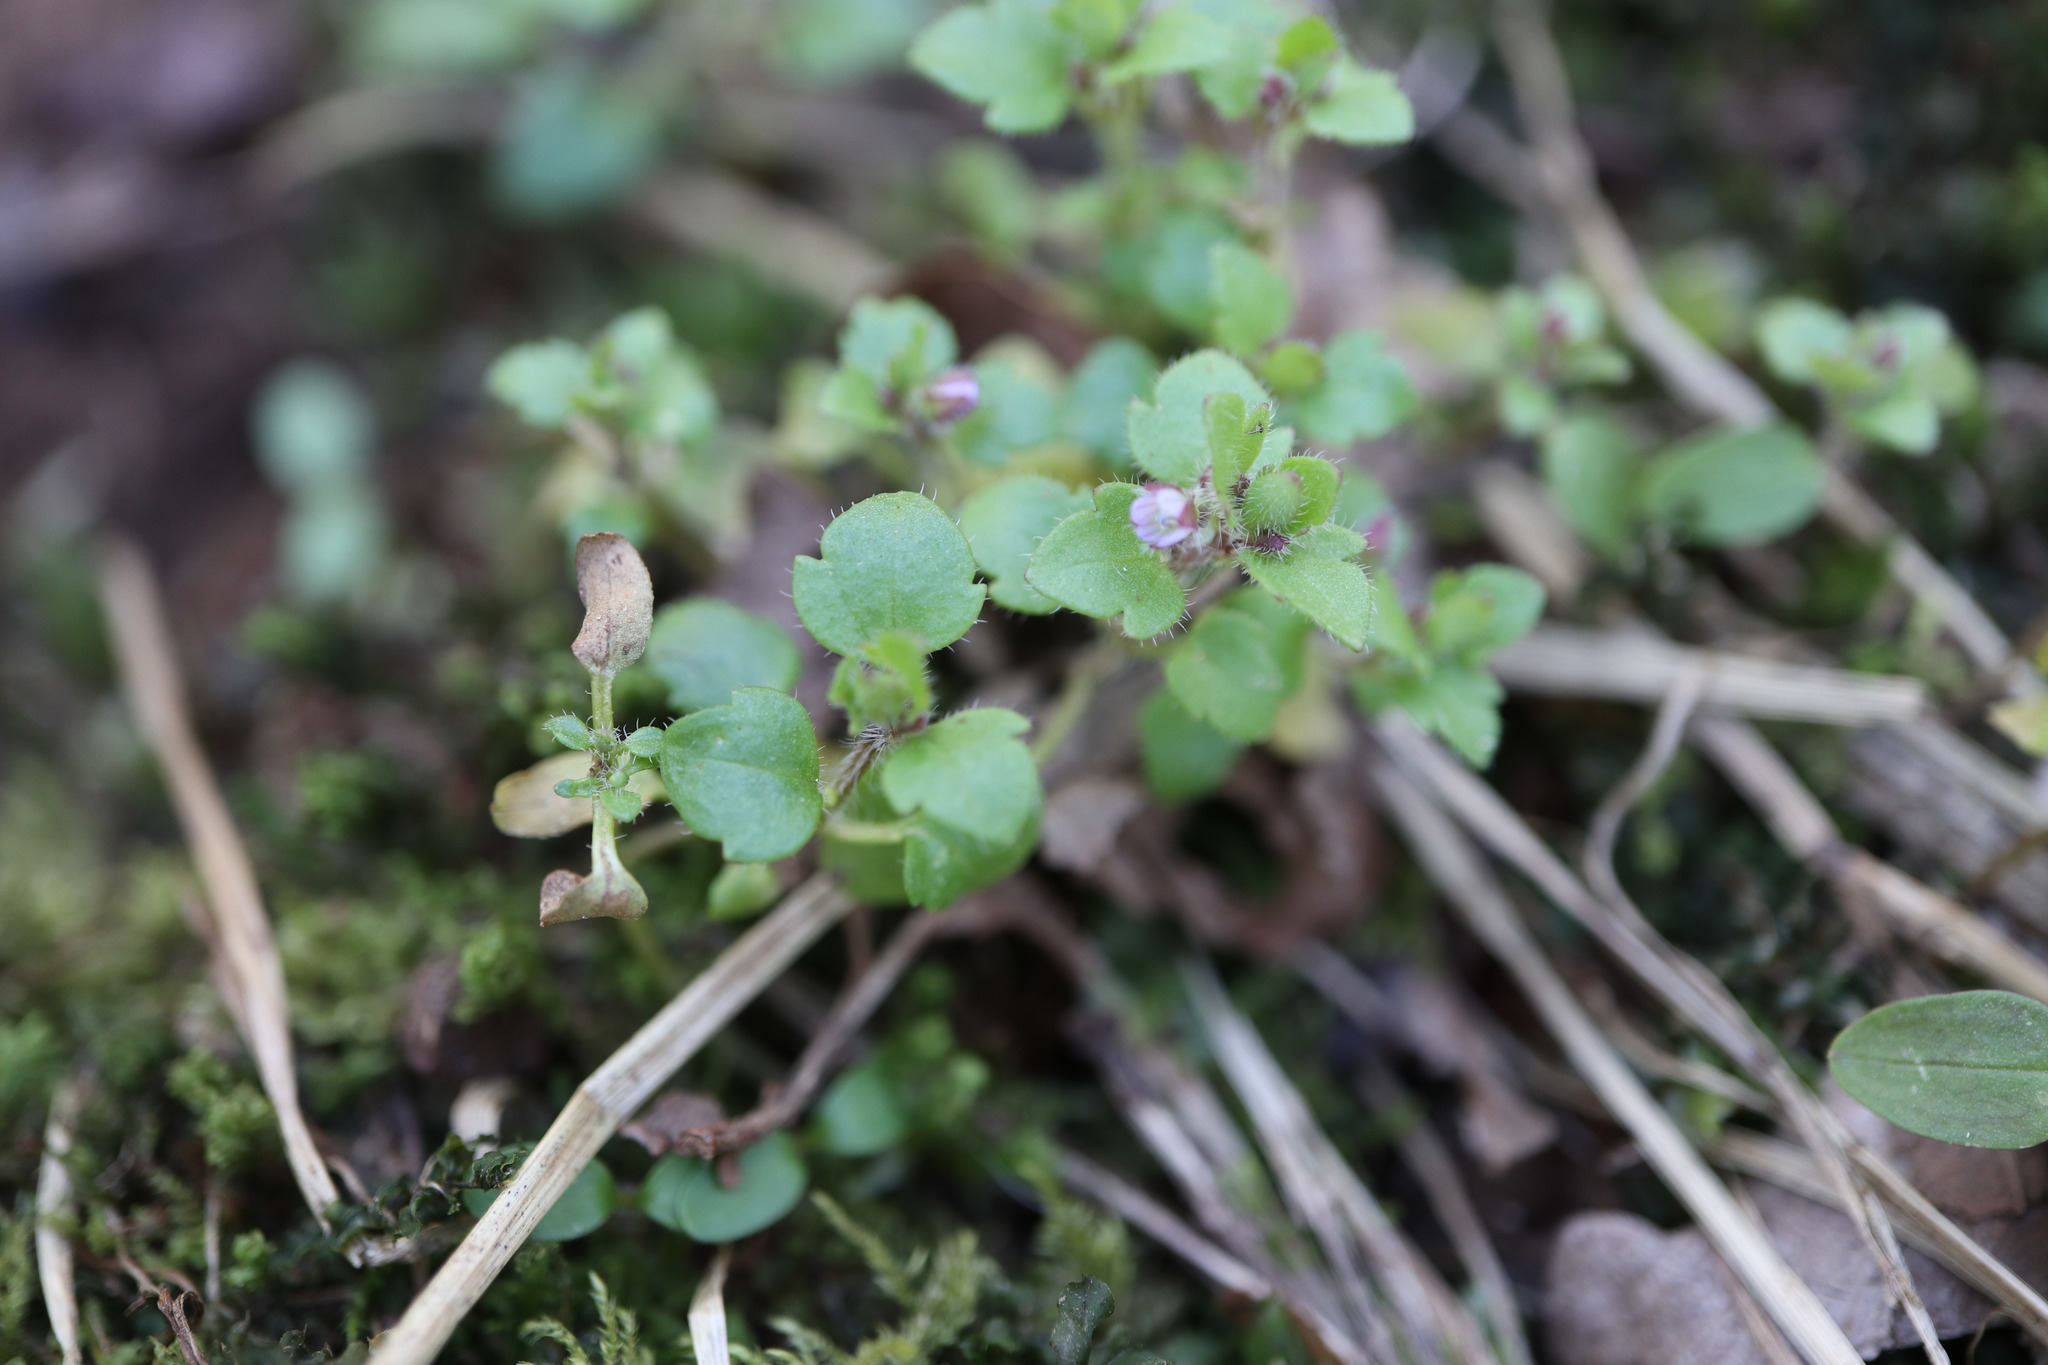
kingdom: Plantae
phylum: Tracheophyta
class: Magnoliopsida
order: Lamiales
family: Plantaginaceae
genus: Veronica
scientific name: Veronica sublobata
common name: False ivy-leaved speedwell
